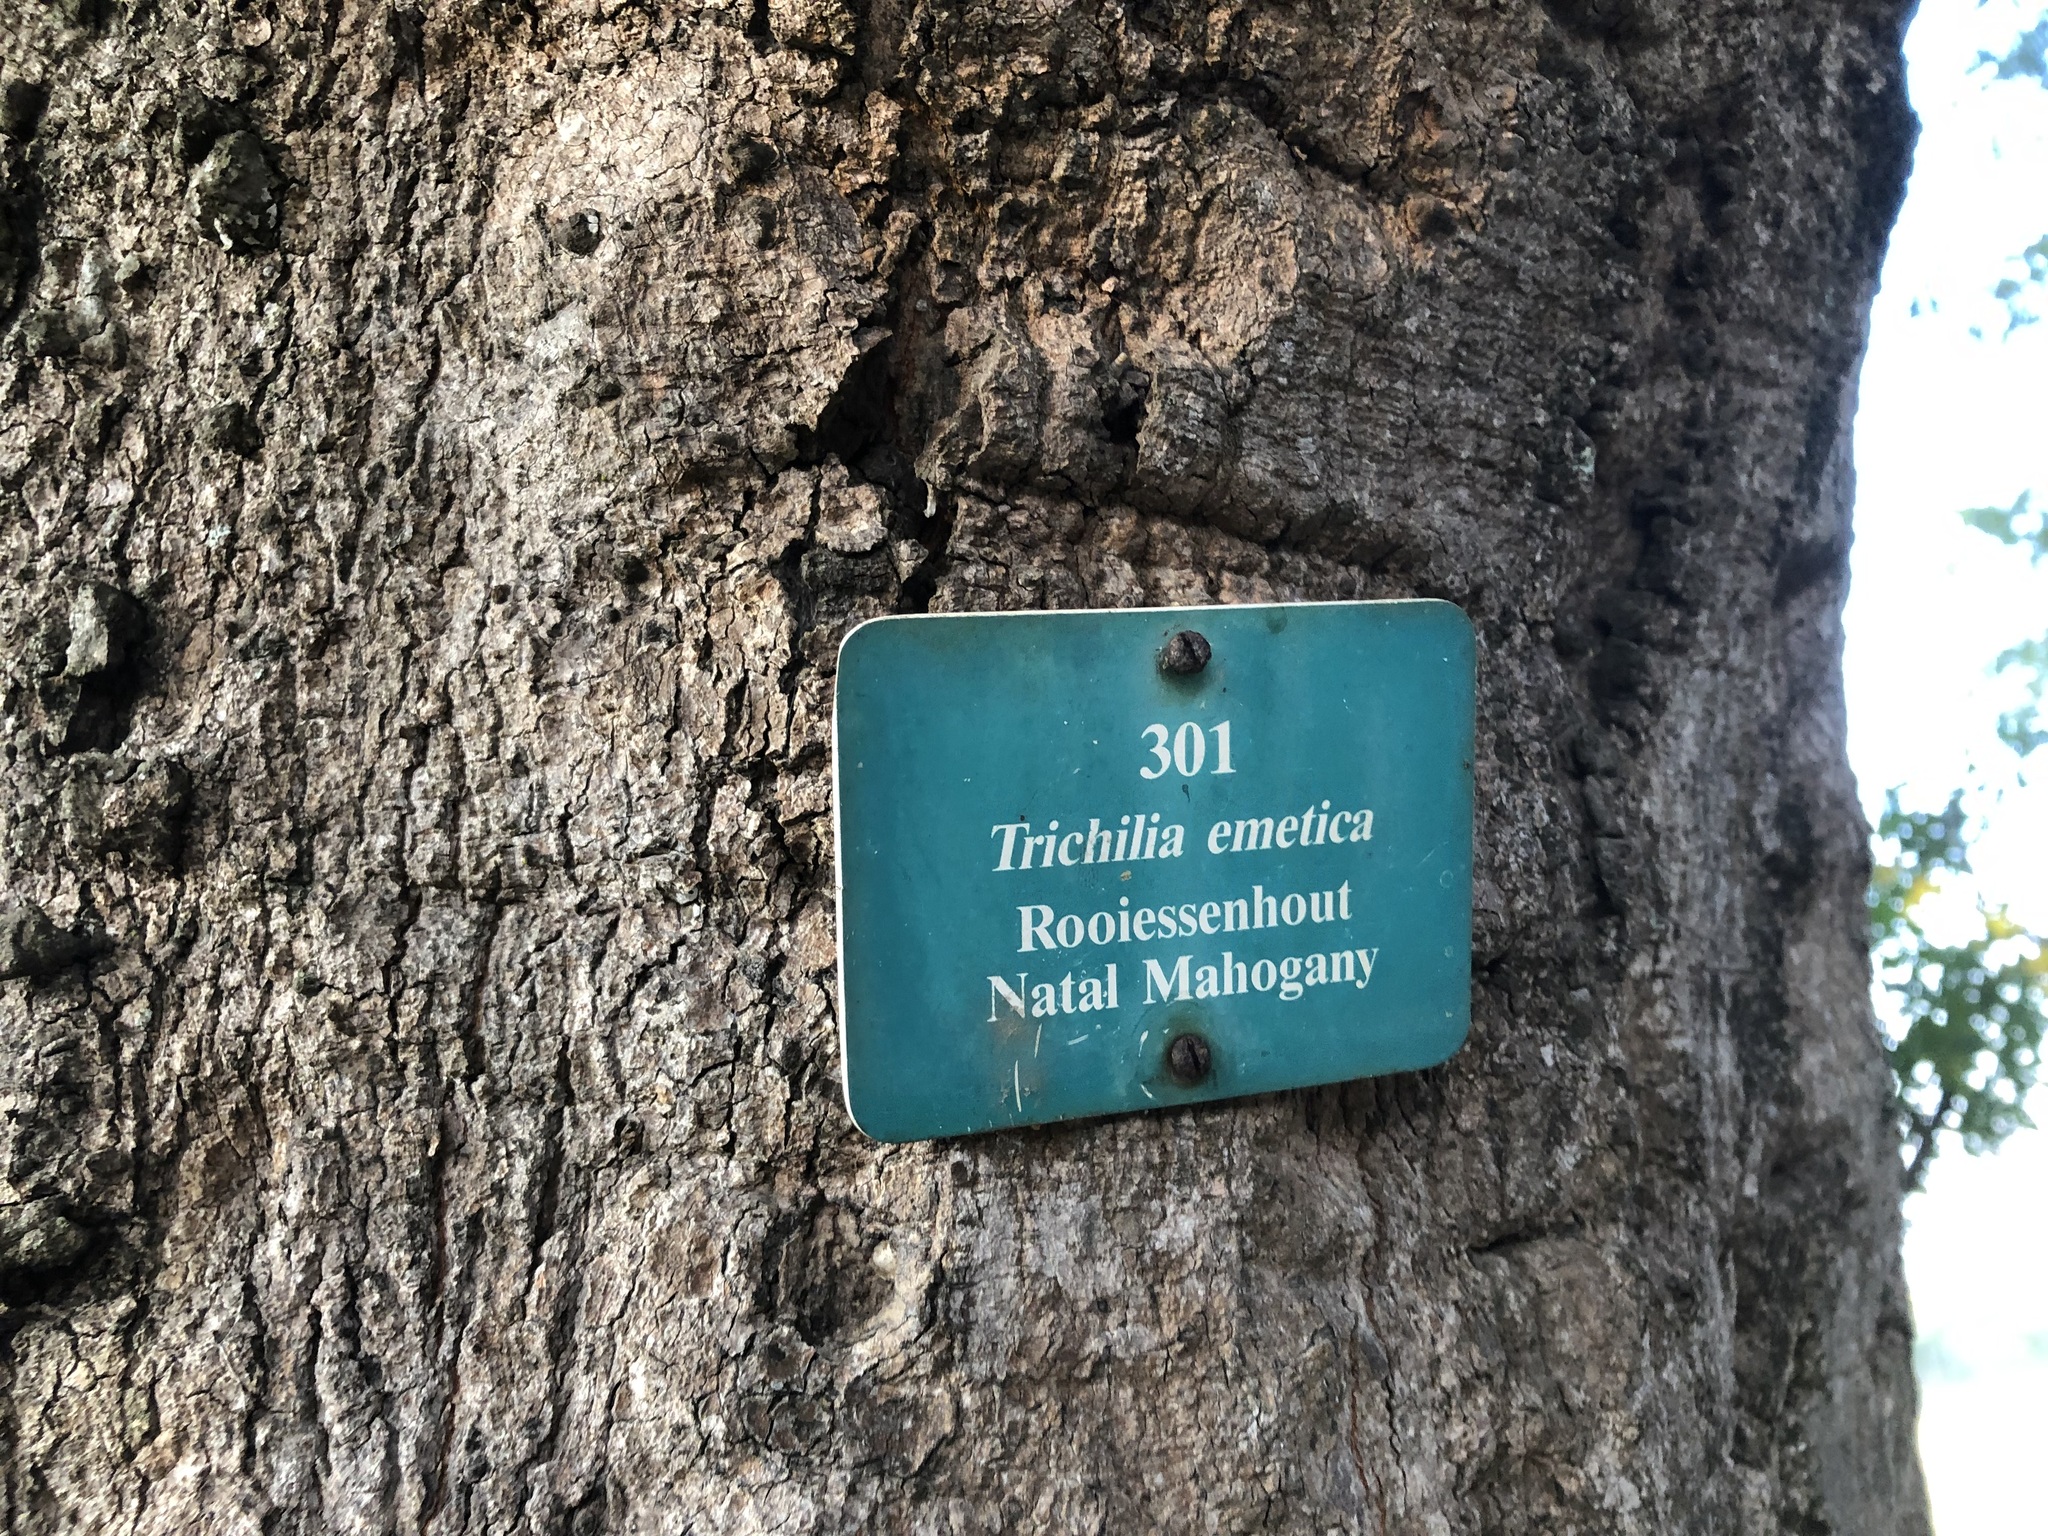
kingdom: Plantae
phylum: Tracheophyta
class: Magnoliopsida
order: Sapindales
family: Meliaceae
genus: Trichilia
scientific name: Trichilia emetica
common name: Christmas-bells
